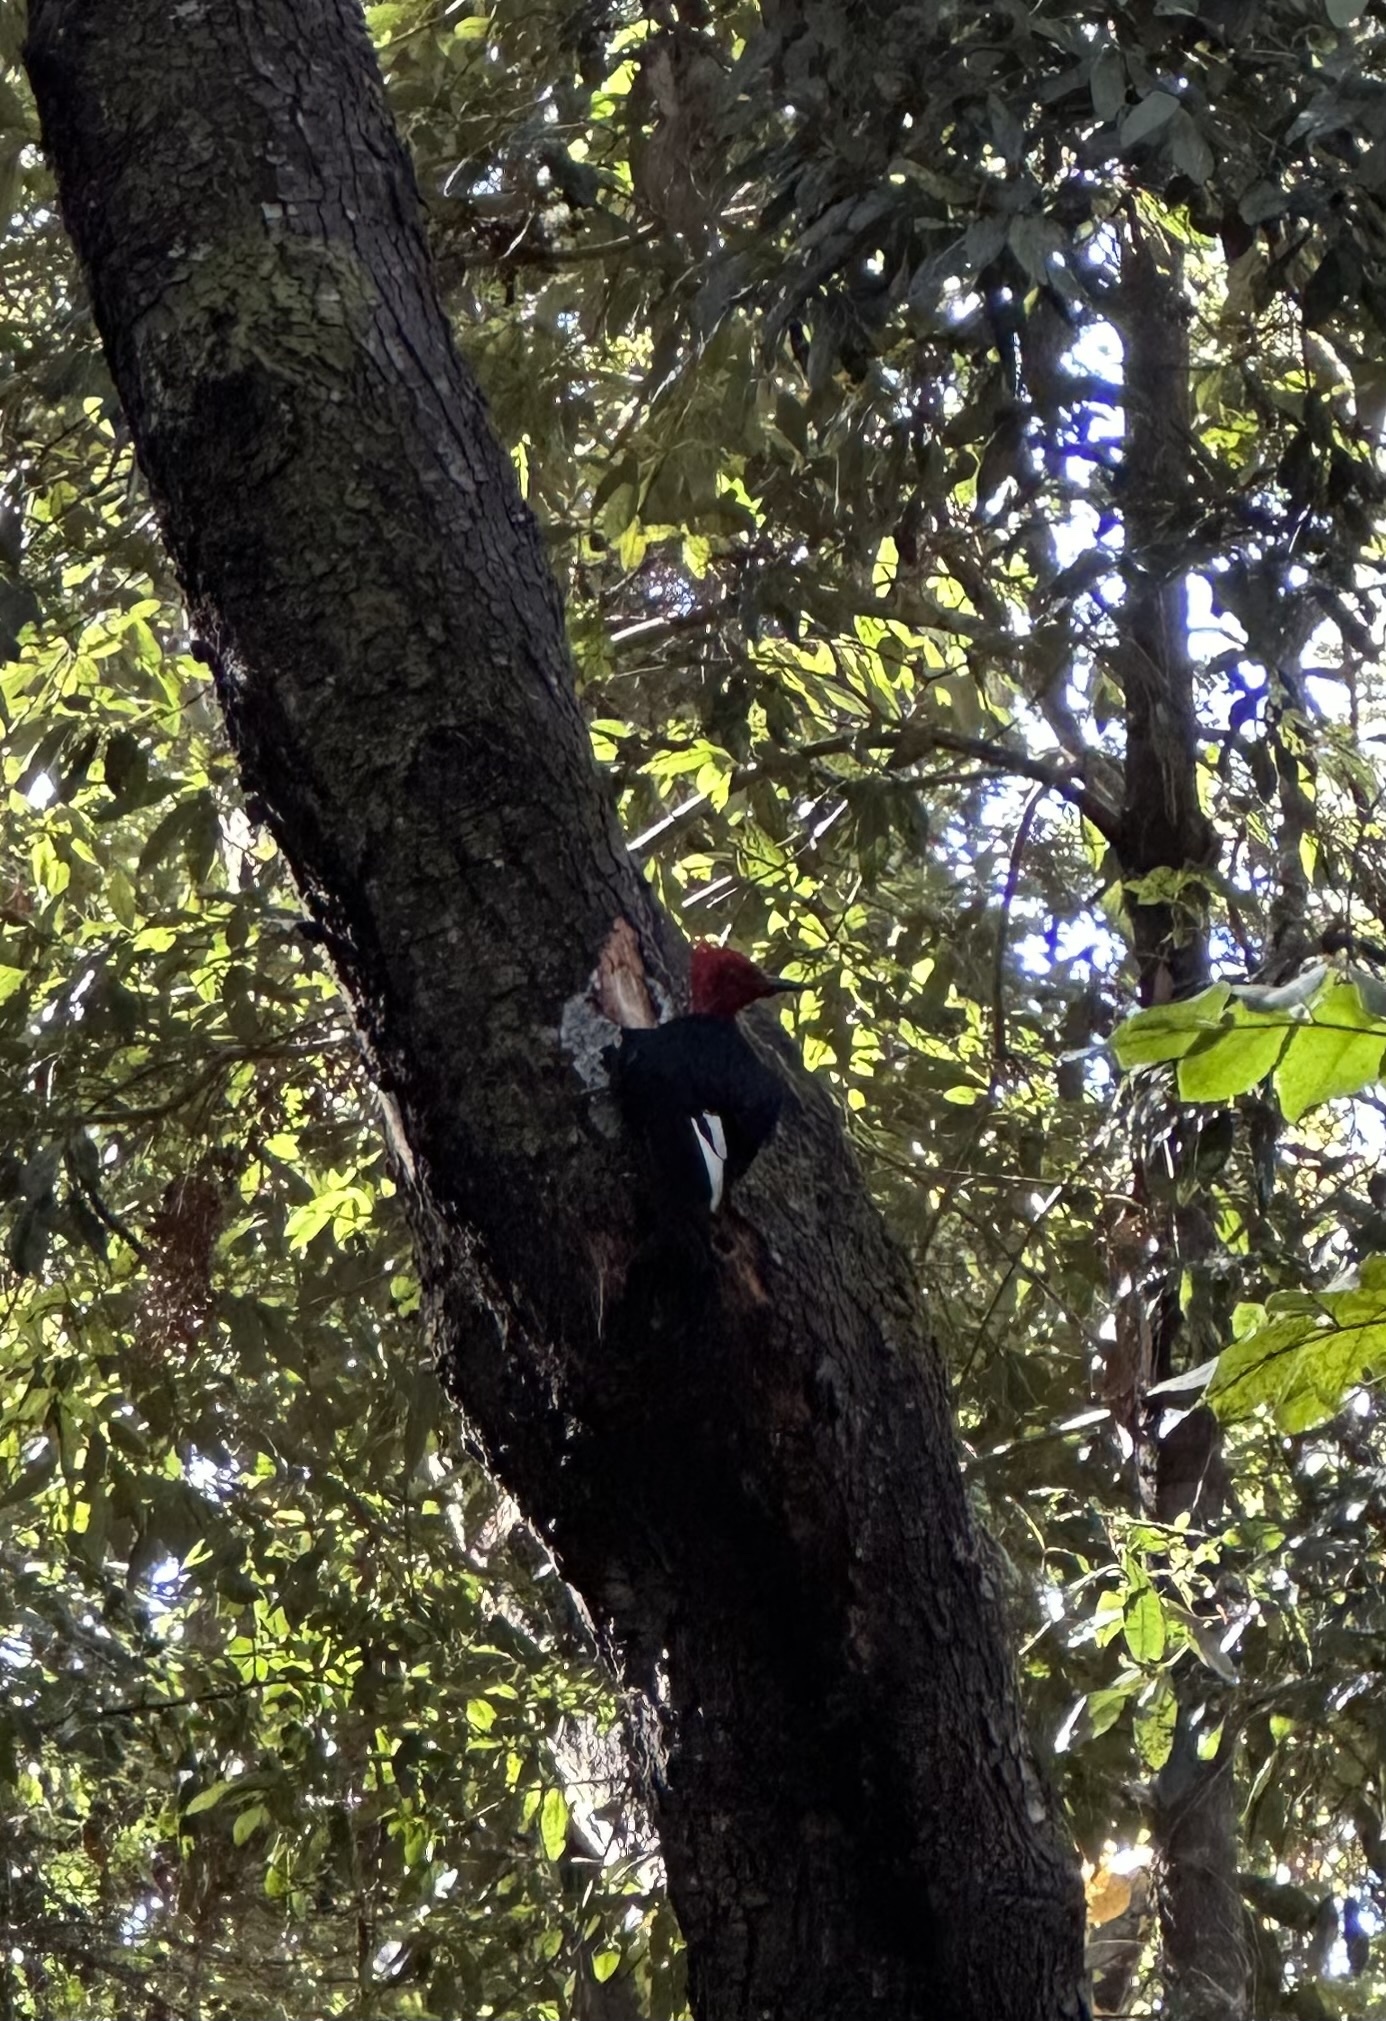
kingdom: Animalia
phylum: Chordata
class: Aves
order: Piciformes
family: Picidae
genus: Campephilus
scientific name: Campephilus magellanicus
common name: Magellanic woodpecker
